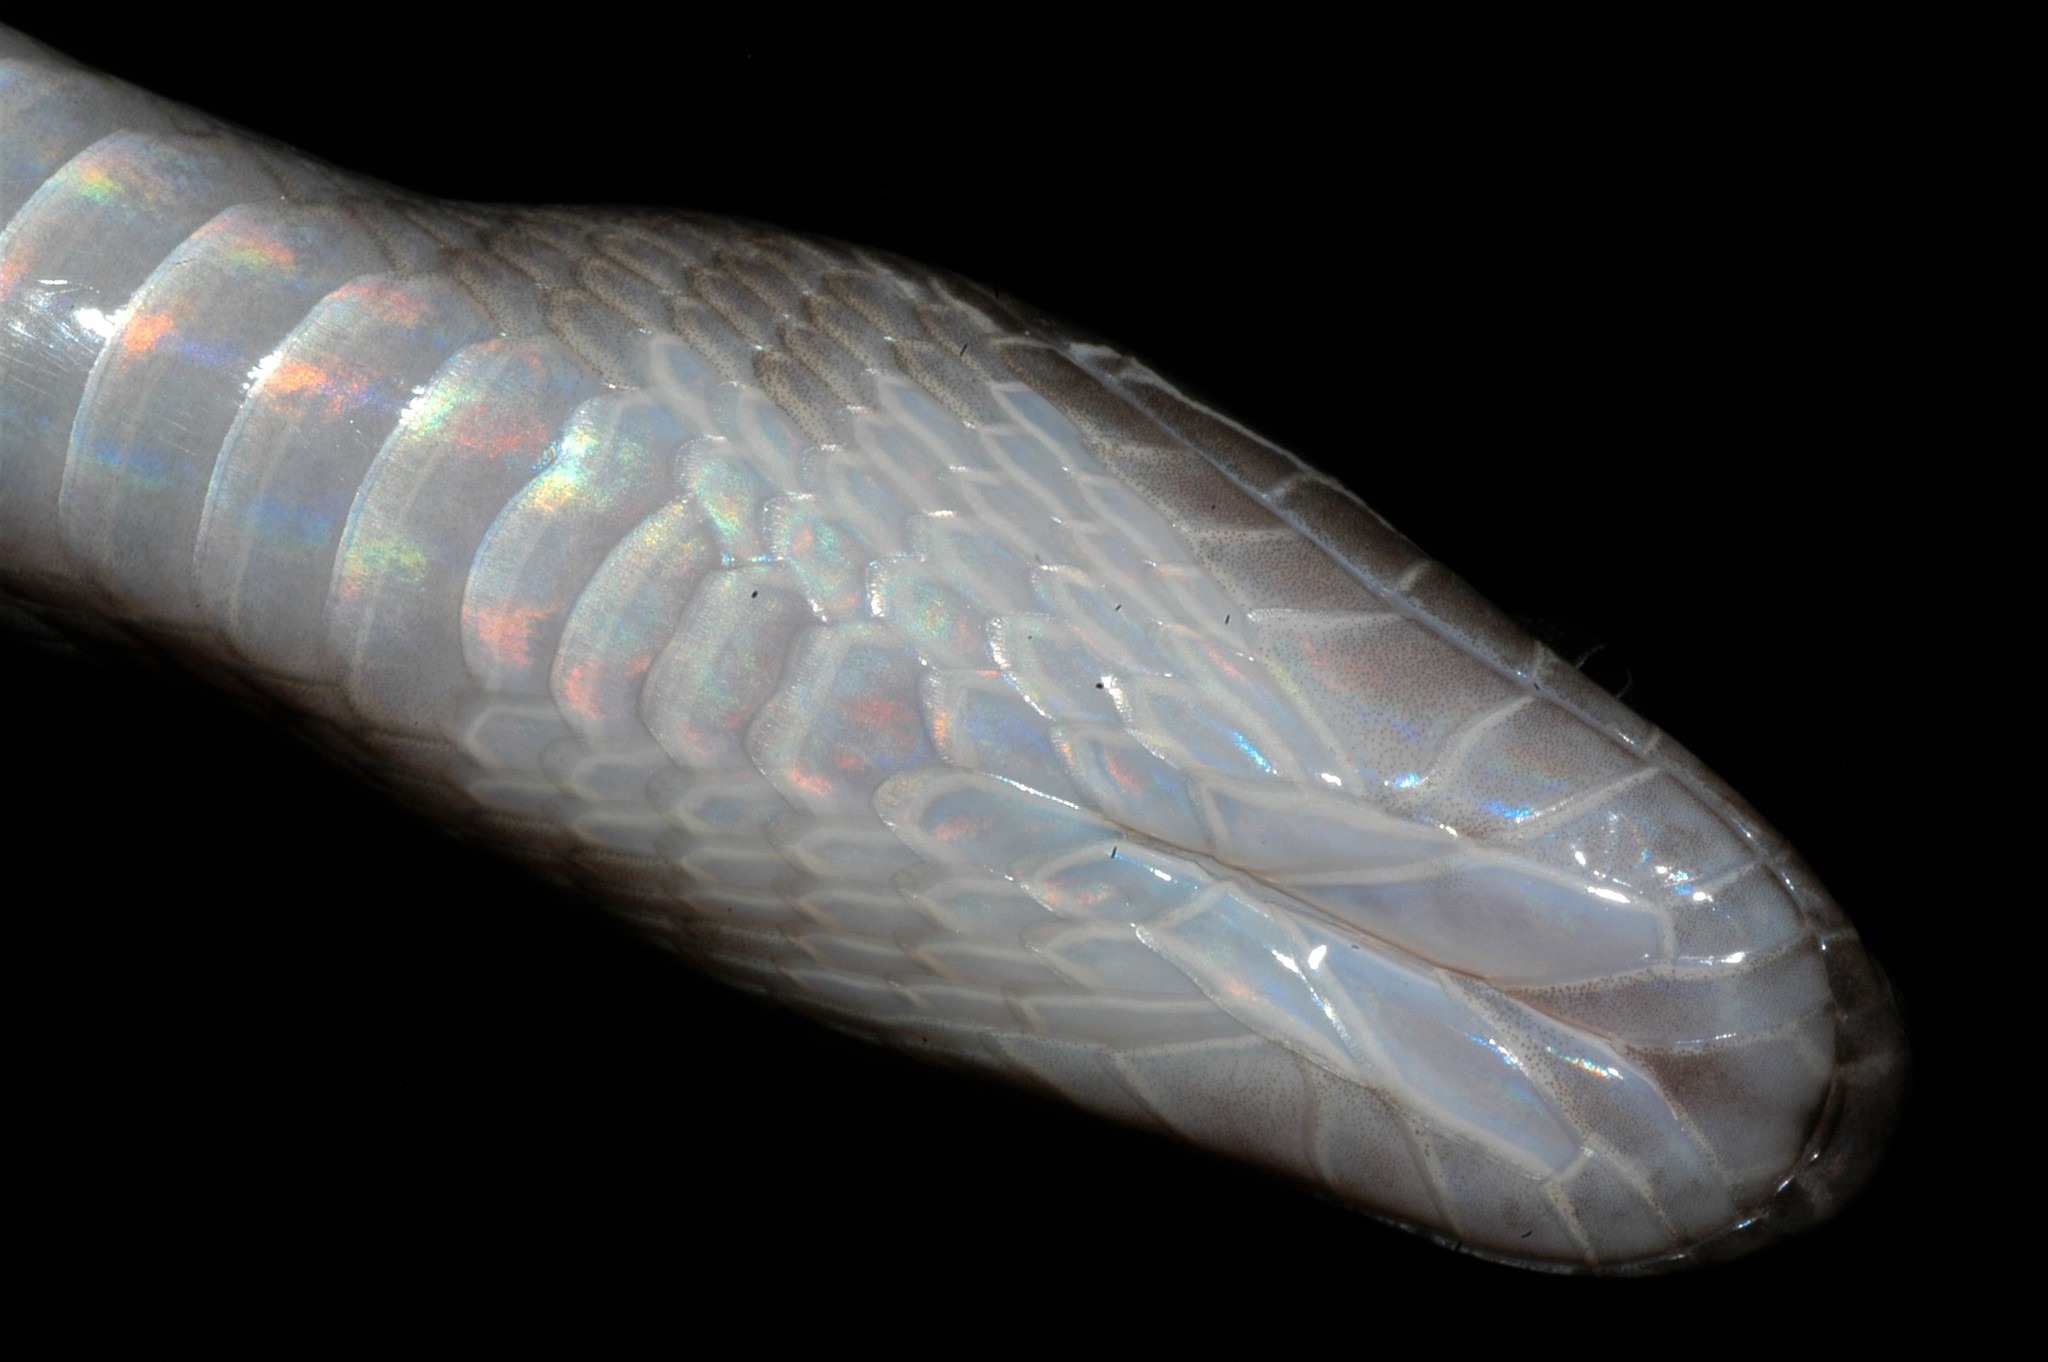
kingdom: Animalia
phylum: Chordata
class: Squamata
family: Lamprophiidae
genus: Boaedon
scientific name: Boaedon fuliginosus
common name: African house snake
